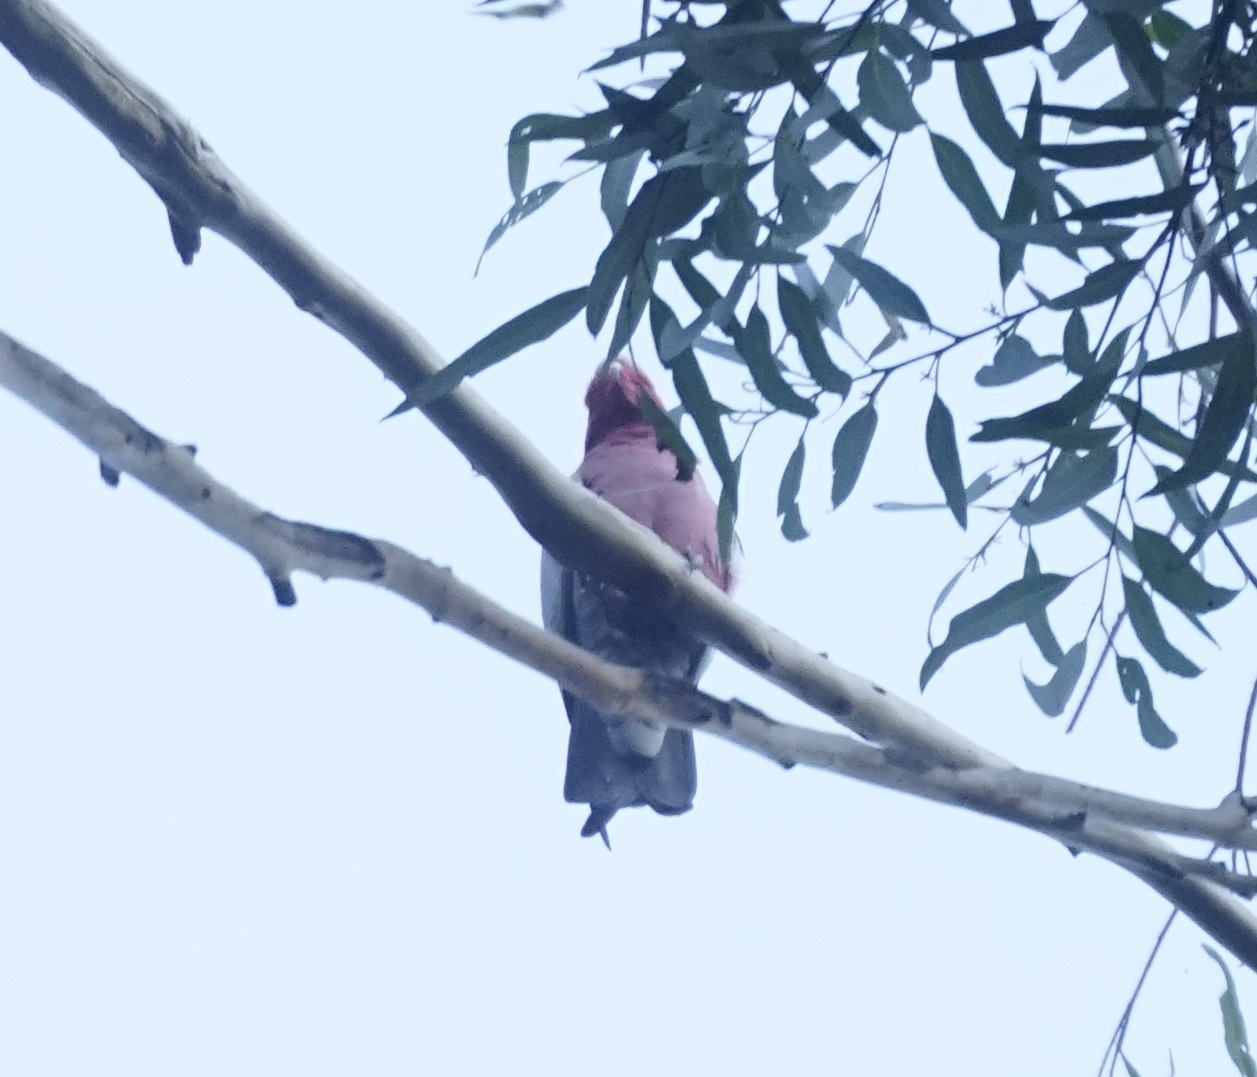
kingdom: Animalia
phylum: Chordata
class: Aves
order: Psittaciformes
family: Psittacidae
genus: Eolophus
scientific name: Eolophus roseicapilla
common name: Galah
